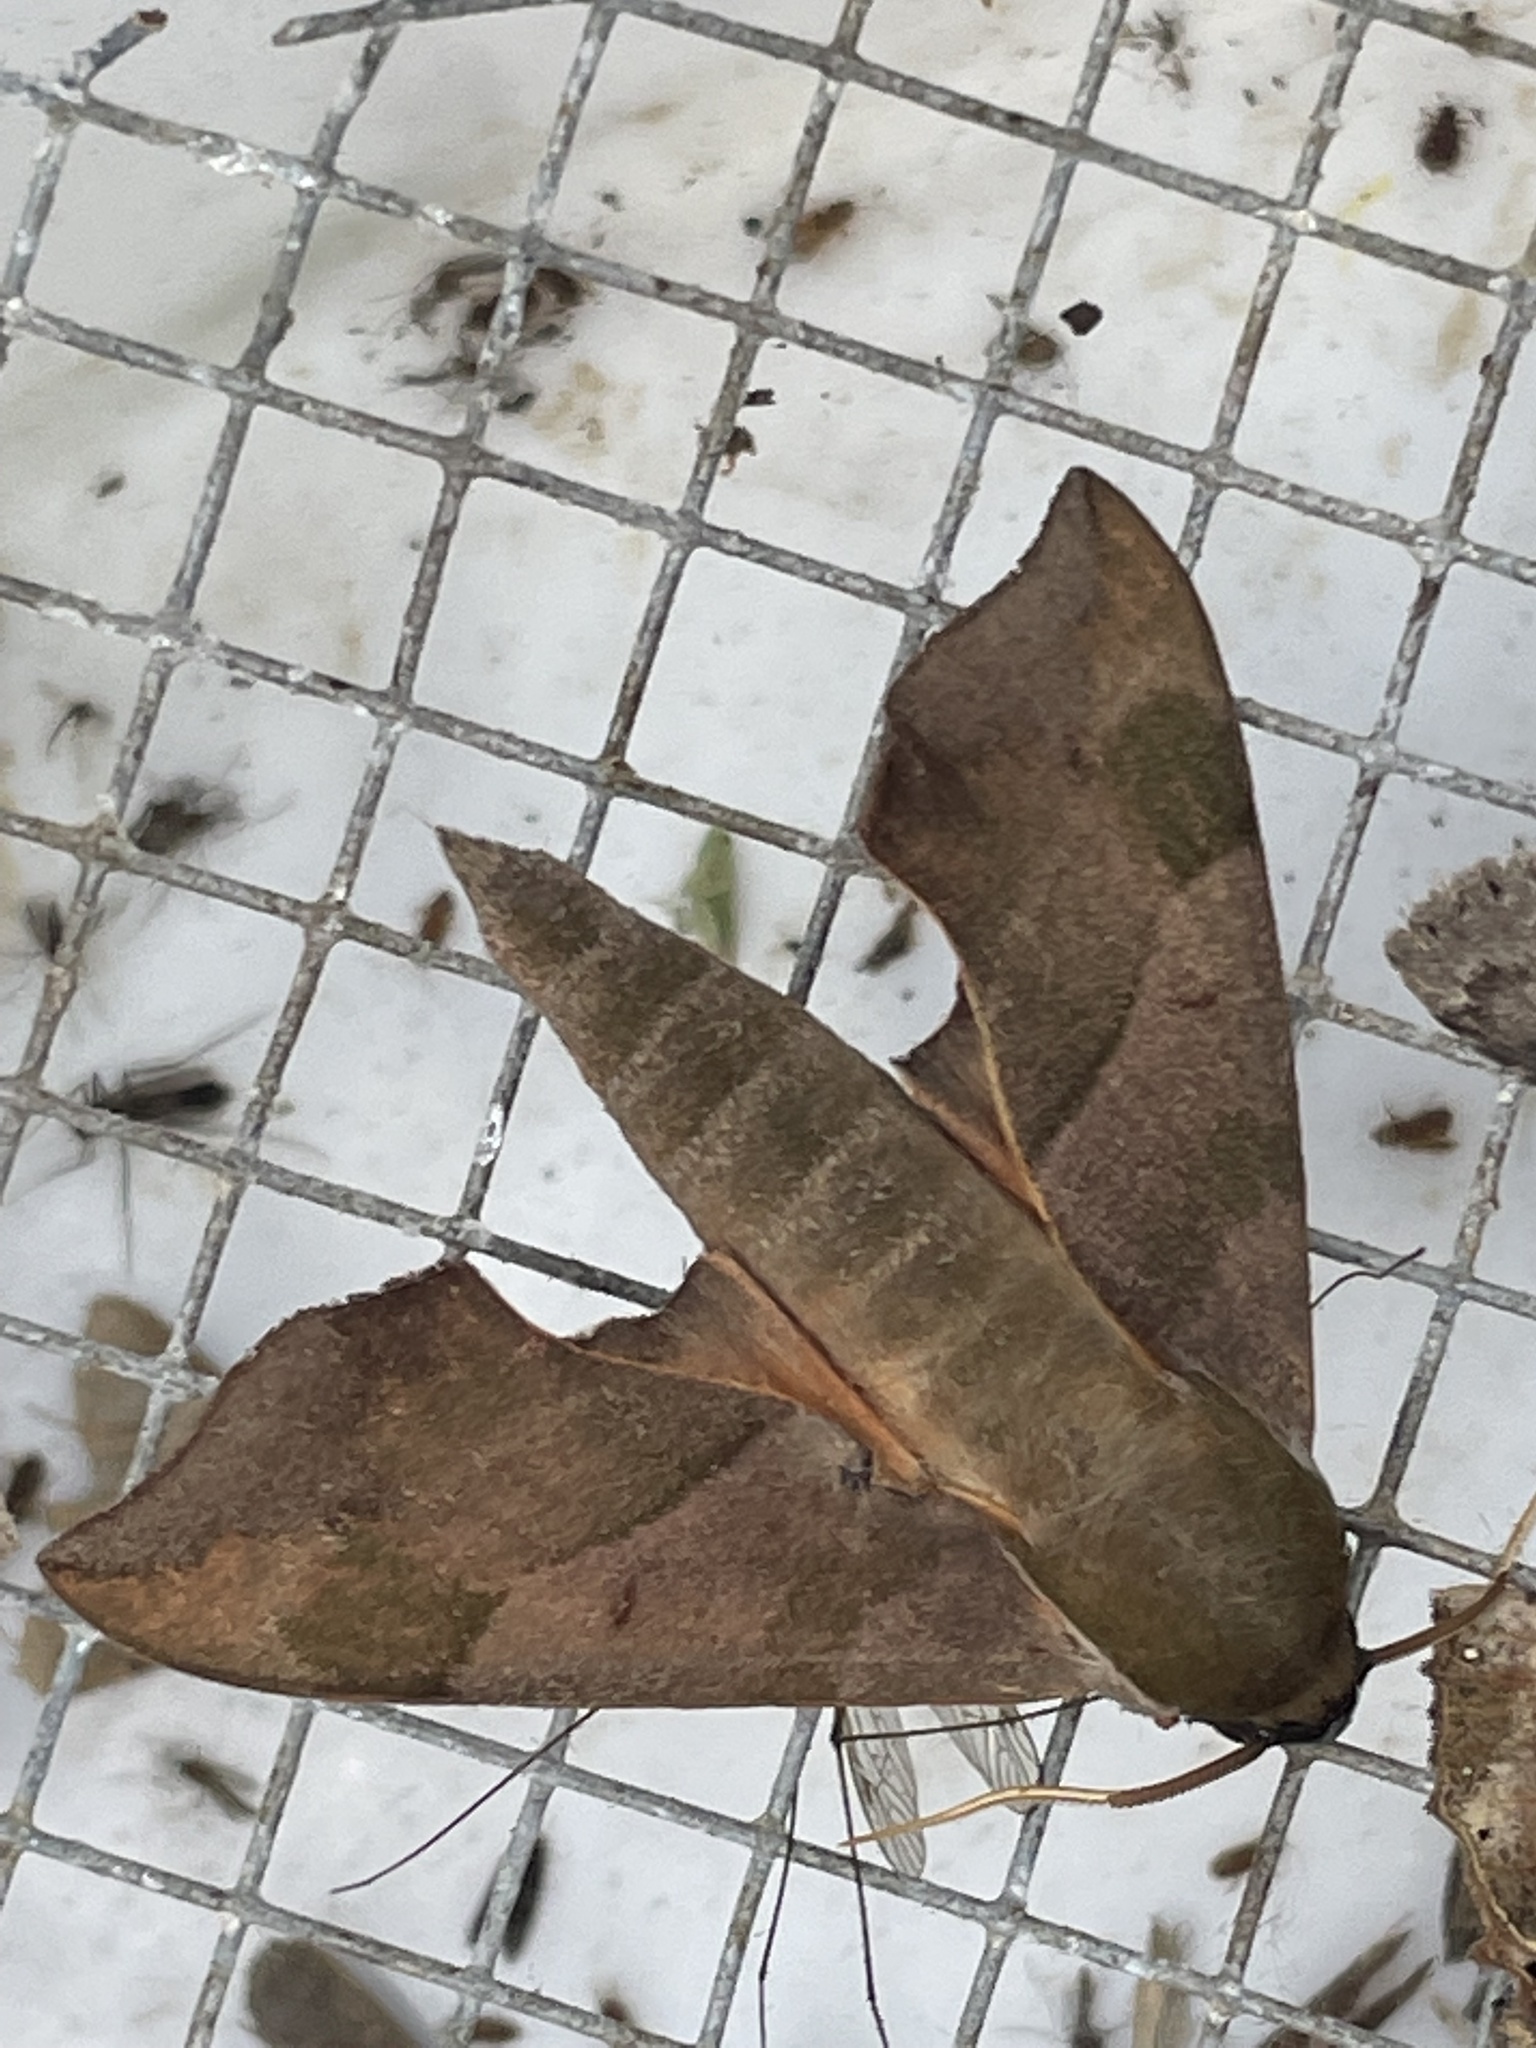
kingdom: Animalia
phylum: Arthropoda
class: Insecta
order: Lepidoptera
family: Sphingidae
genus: Darapsa
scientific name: Darapsa myron
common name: Hog sphinx
